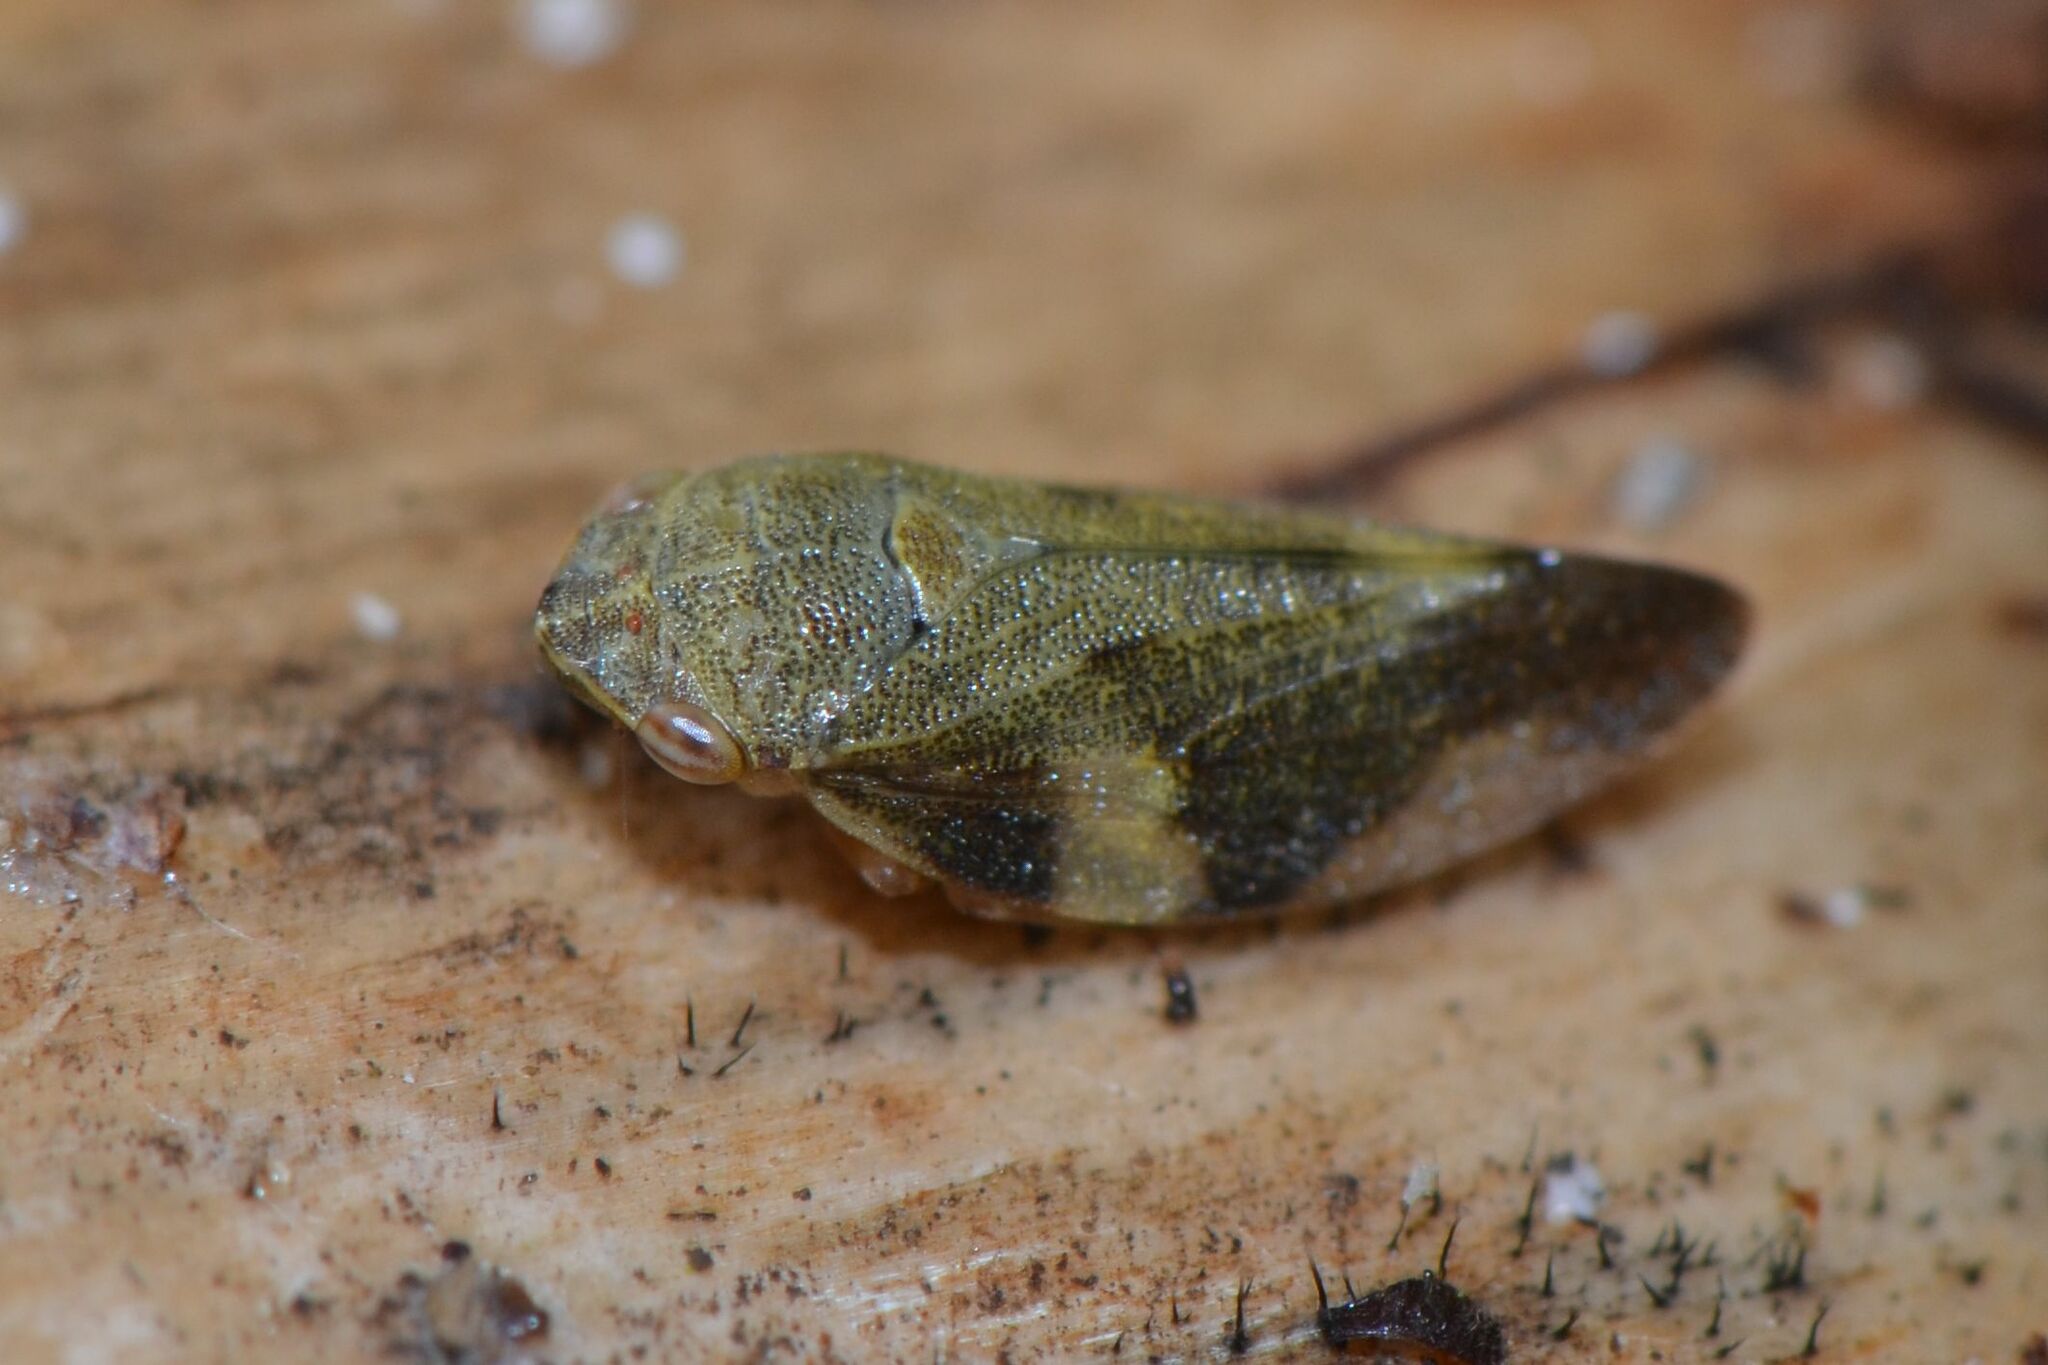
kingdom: Animalia
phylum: Arthropoda
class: Insecta
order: Hemiptera
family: Aphrophoridae
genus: Aphrophora
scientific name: Aphrophora alni
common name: European alder spittlebug
